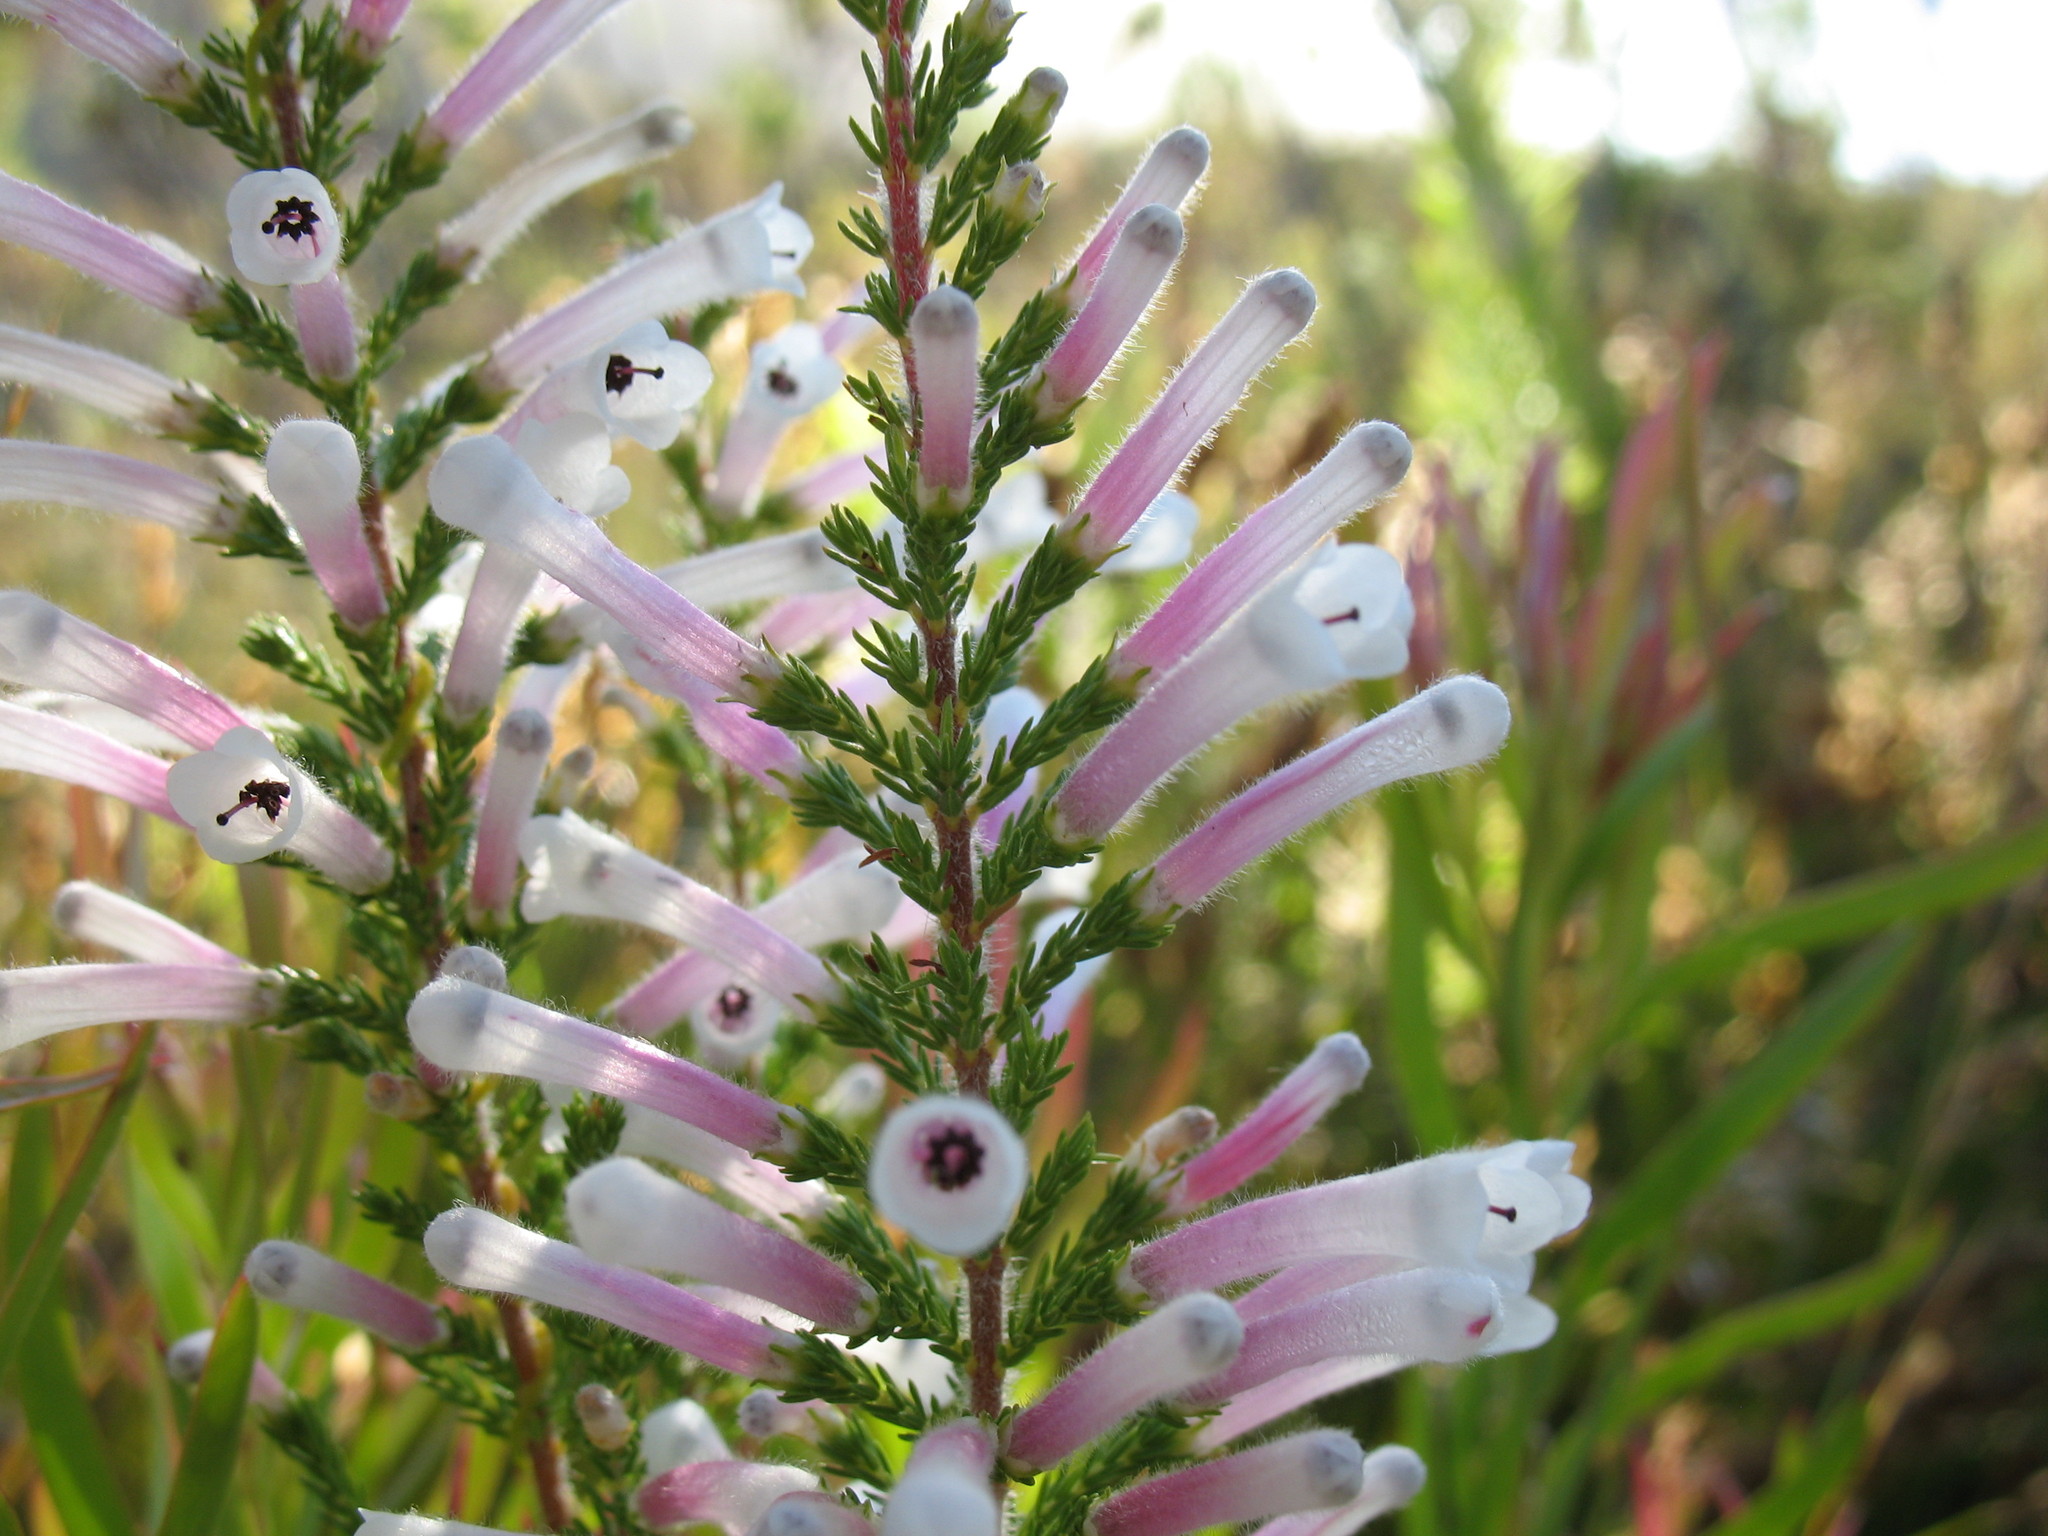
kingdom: Plantae
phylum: Tracheophyta
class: Magnoliopsida
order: Ericales
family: Ericaceae
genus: Erica
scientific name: Erica perspicua
